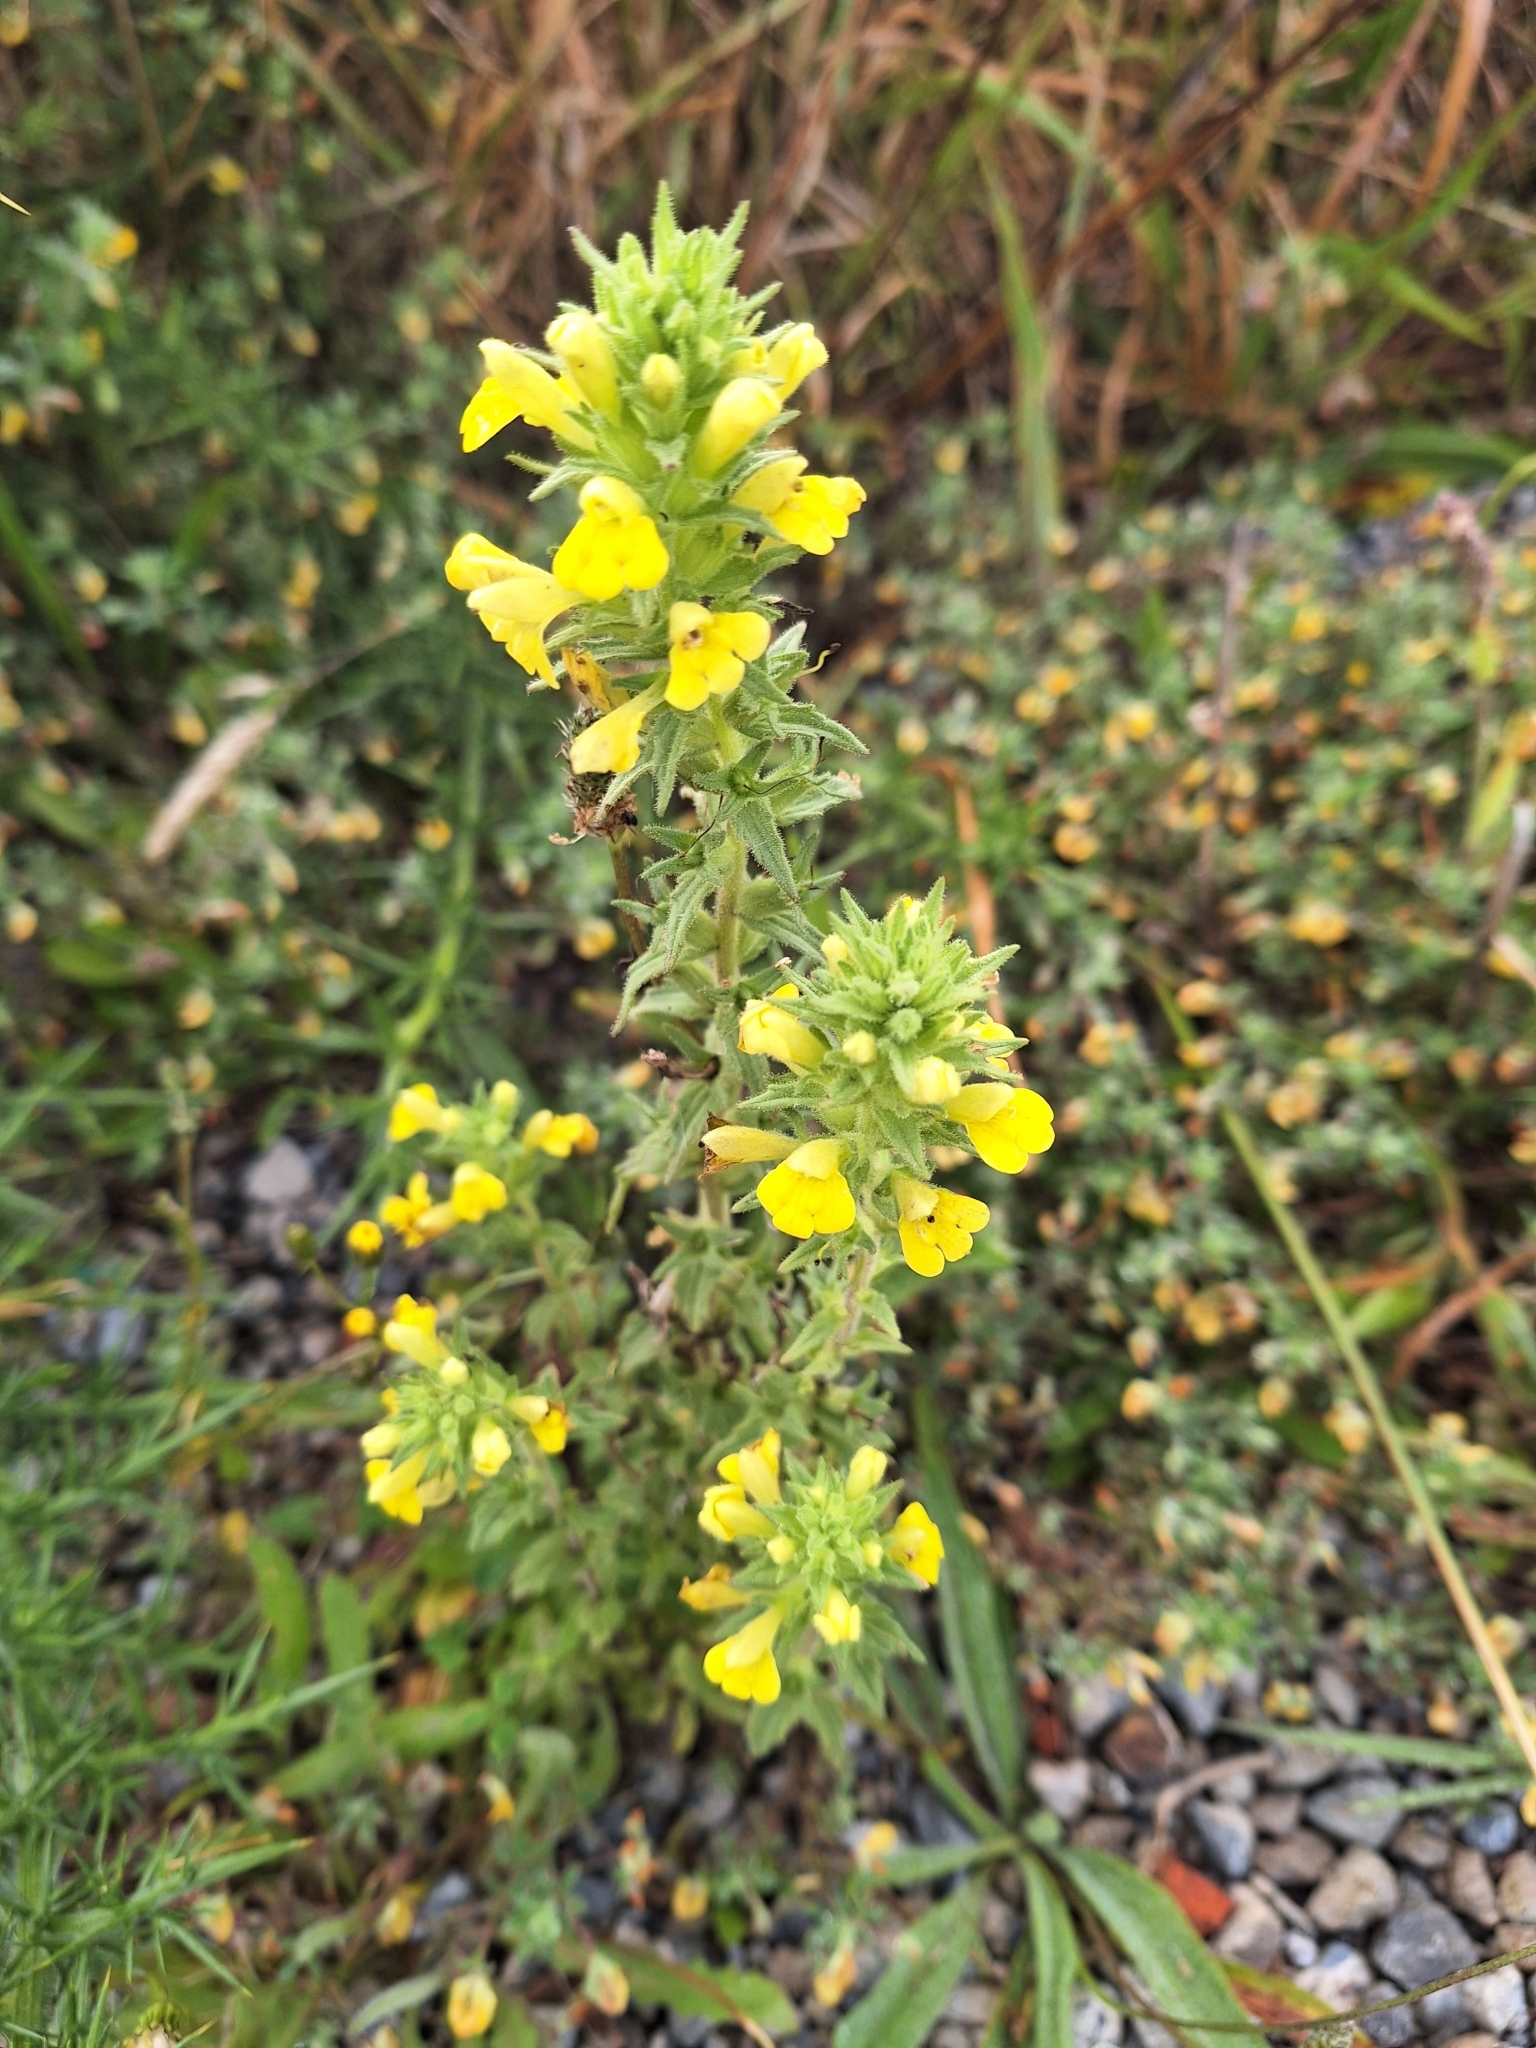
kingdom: Plantae
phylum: Tracheophyta
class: Magnoliopsida
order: Lamiales
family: Orobanchaceae
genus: Bellardia
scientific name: Bellardia viscosa
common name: Sticky parentucellia
